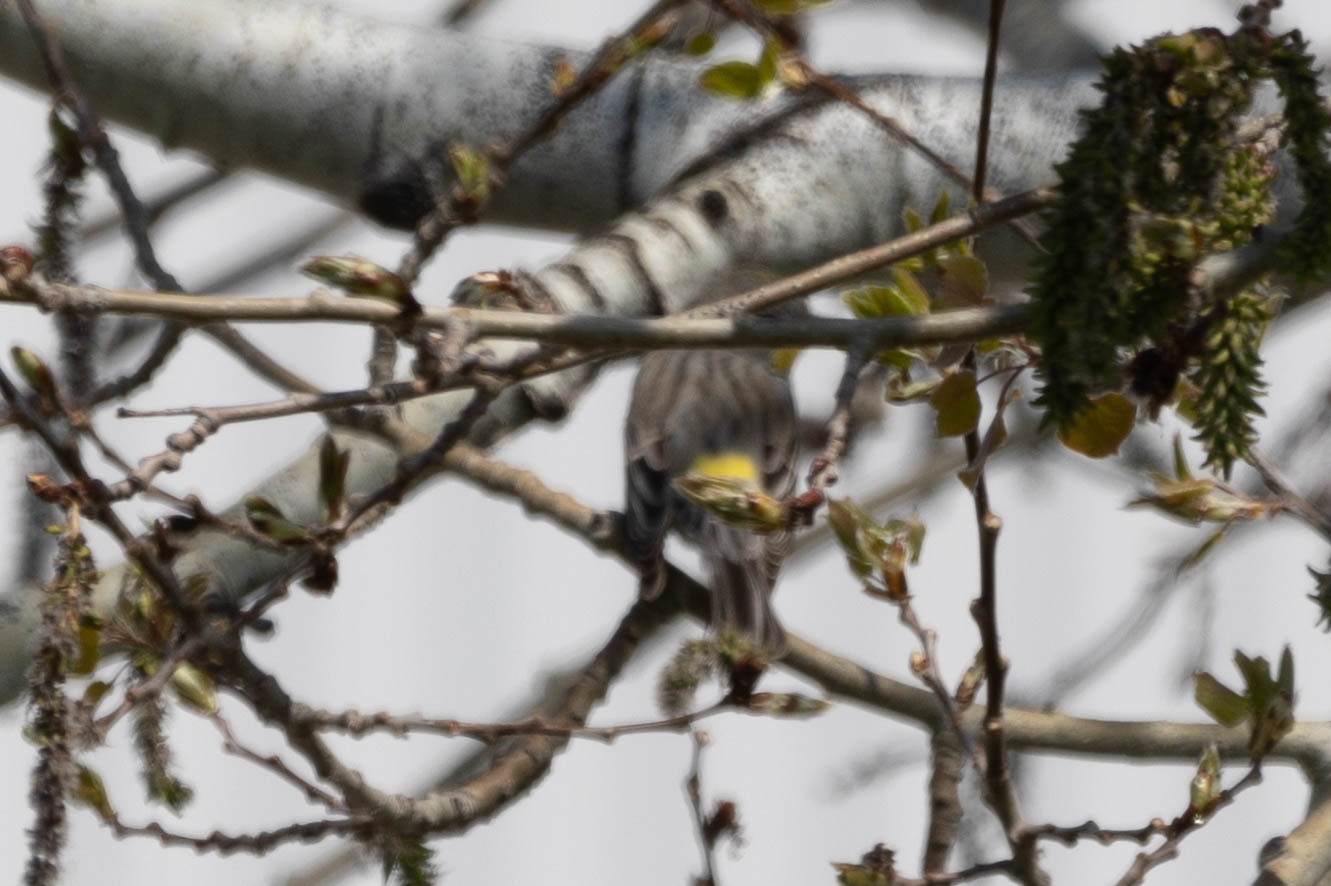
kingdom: Animalia
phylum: Chordata
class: Aves
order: Passeriformes
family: Parulidae
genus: Setophaga
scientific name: Setophaga auduboni
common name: Audubon's warbler
